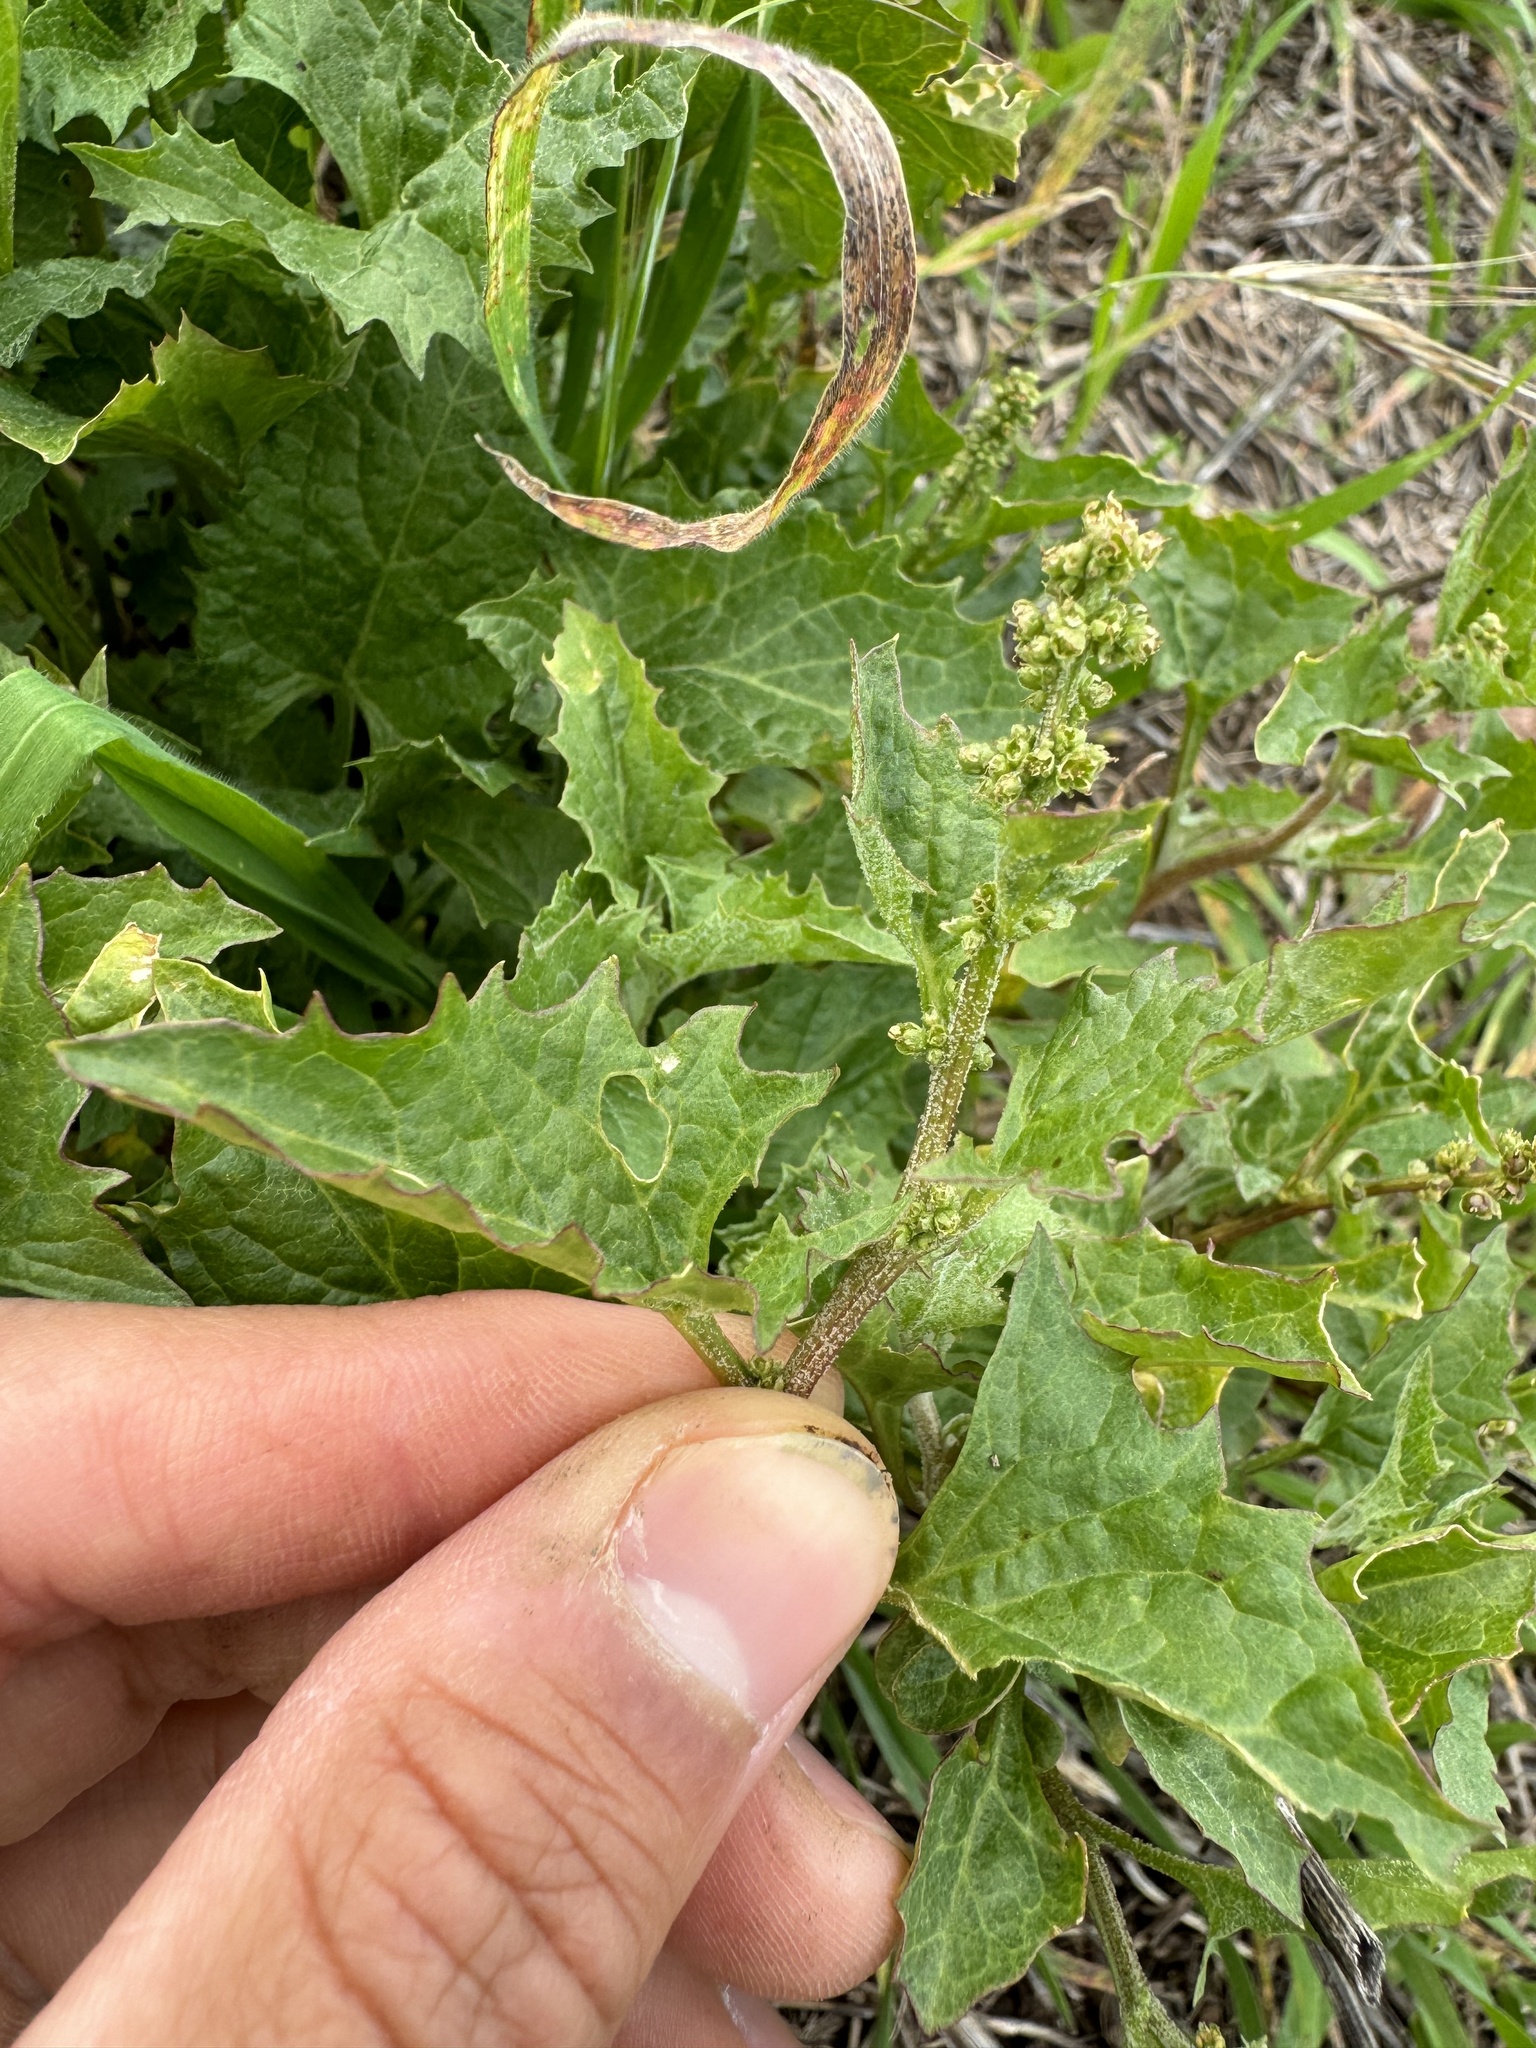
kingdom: Plantae
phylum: Tracheophyta
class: Magnoliopsida
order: Caryophyllales
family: Amaranthaceae
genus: Blitum
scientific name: Blitum californicum
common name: California goosefoot
